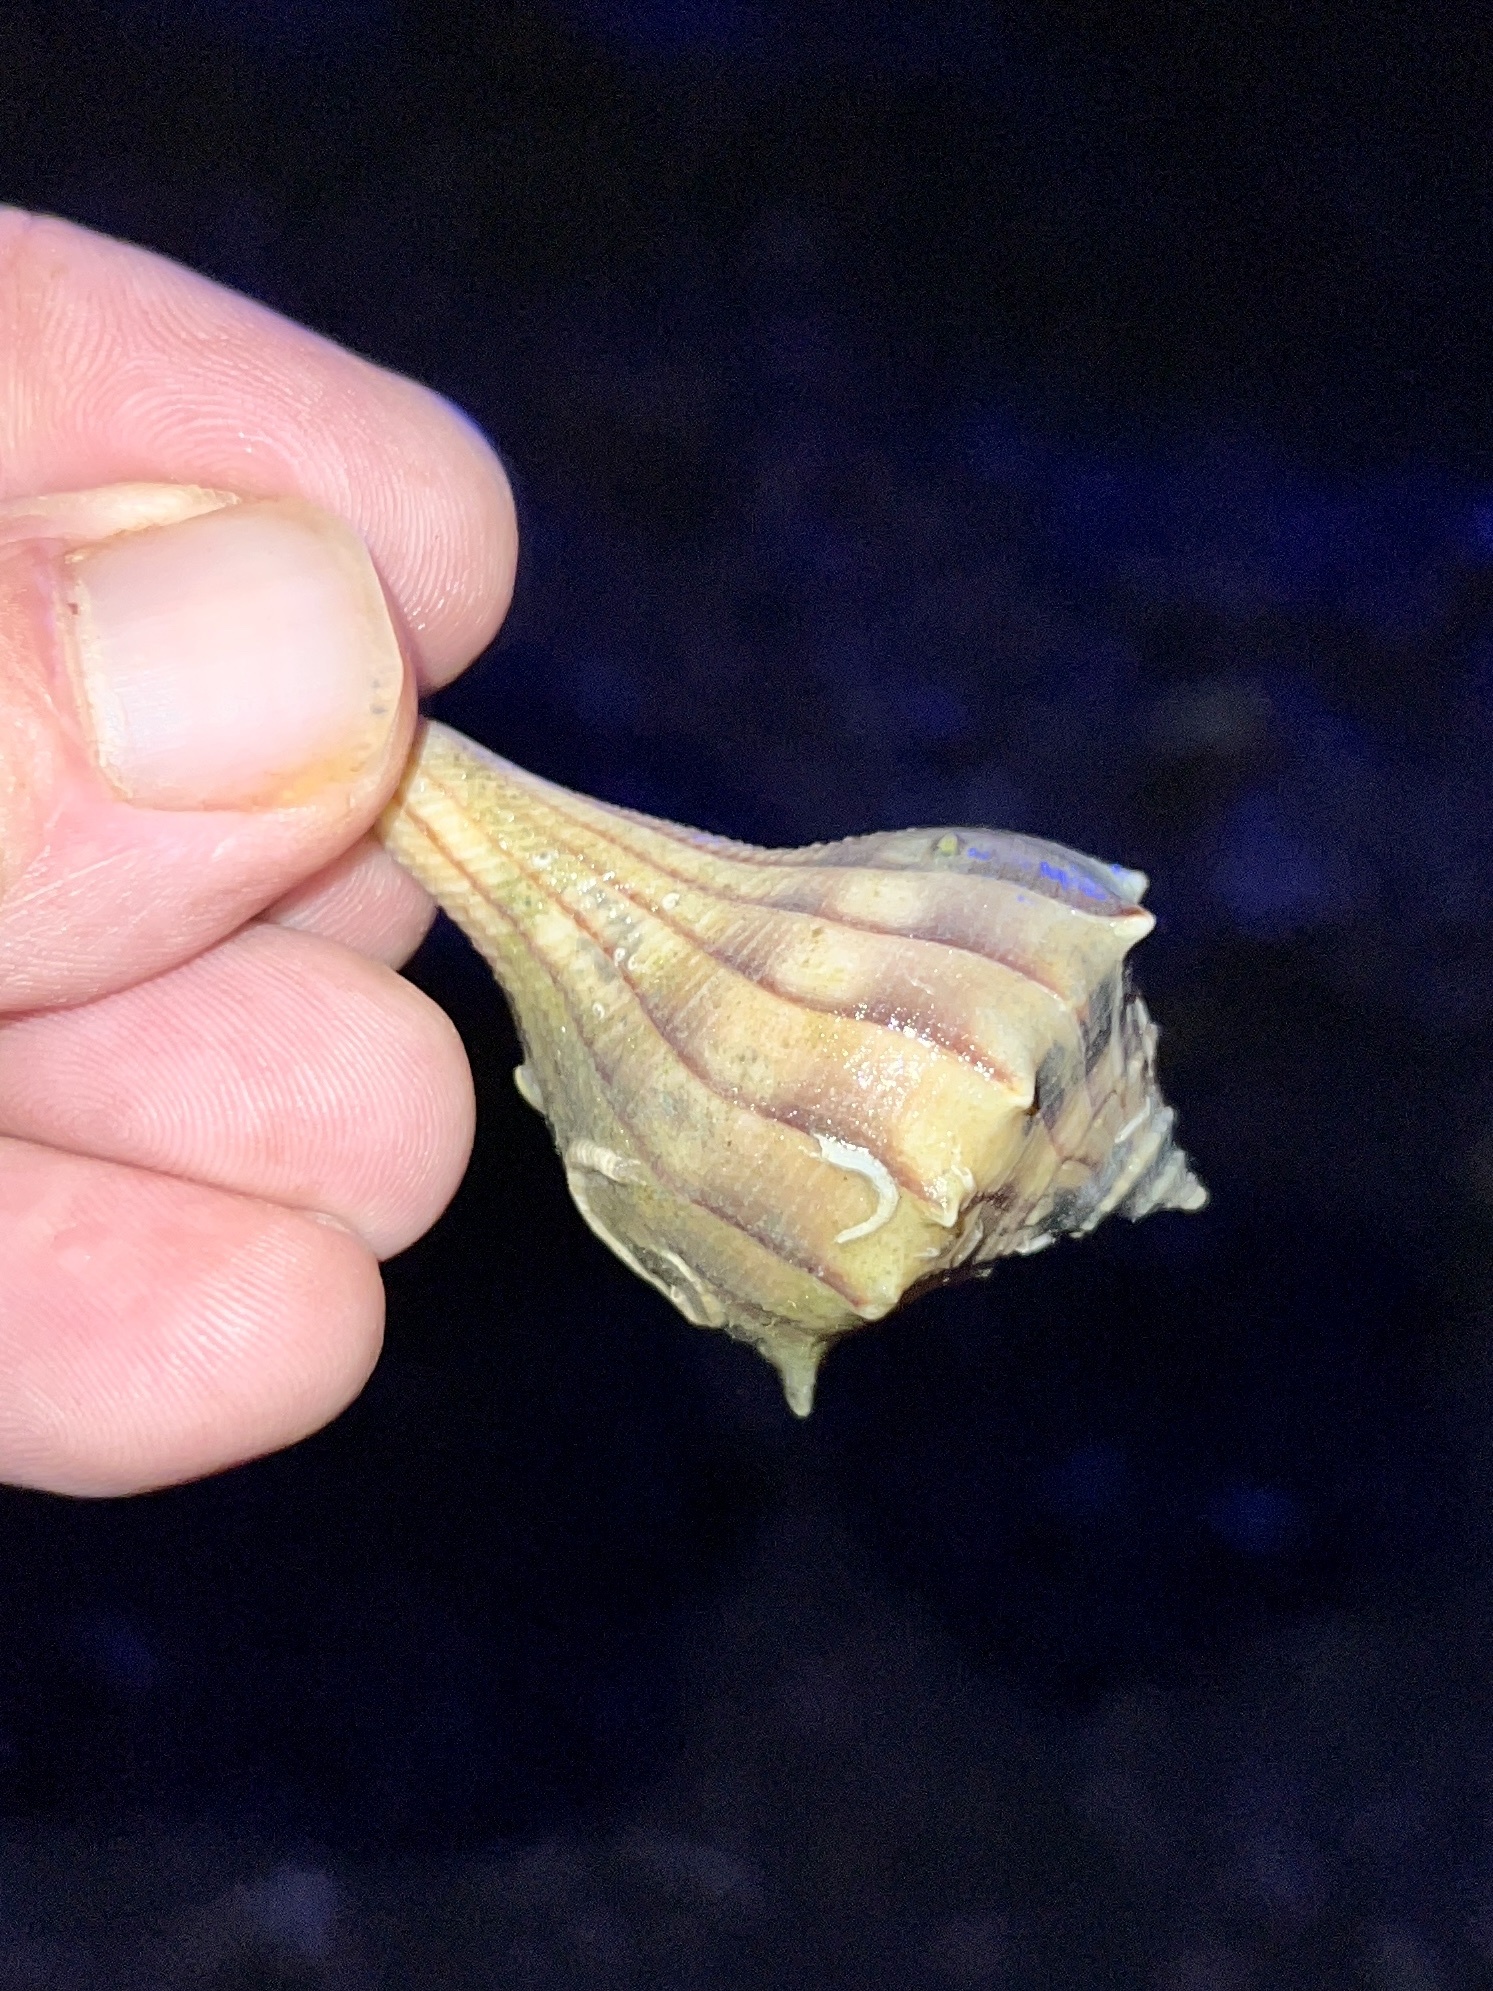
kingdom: Animalia
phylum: Mollusca
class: Gastropoda
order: Neogastropoda
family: Busyconidae
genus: Sinistrofulgur
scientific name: Sinistrofulgur pulleyi
